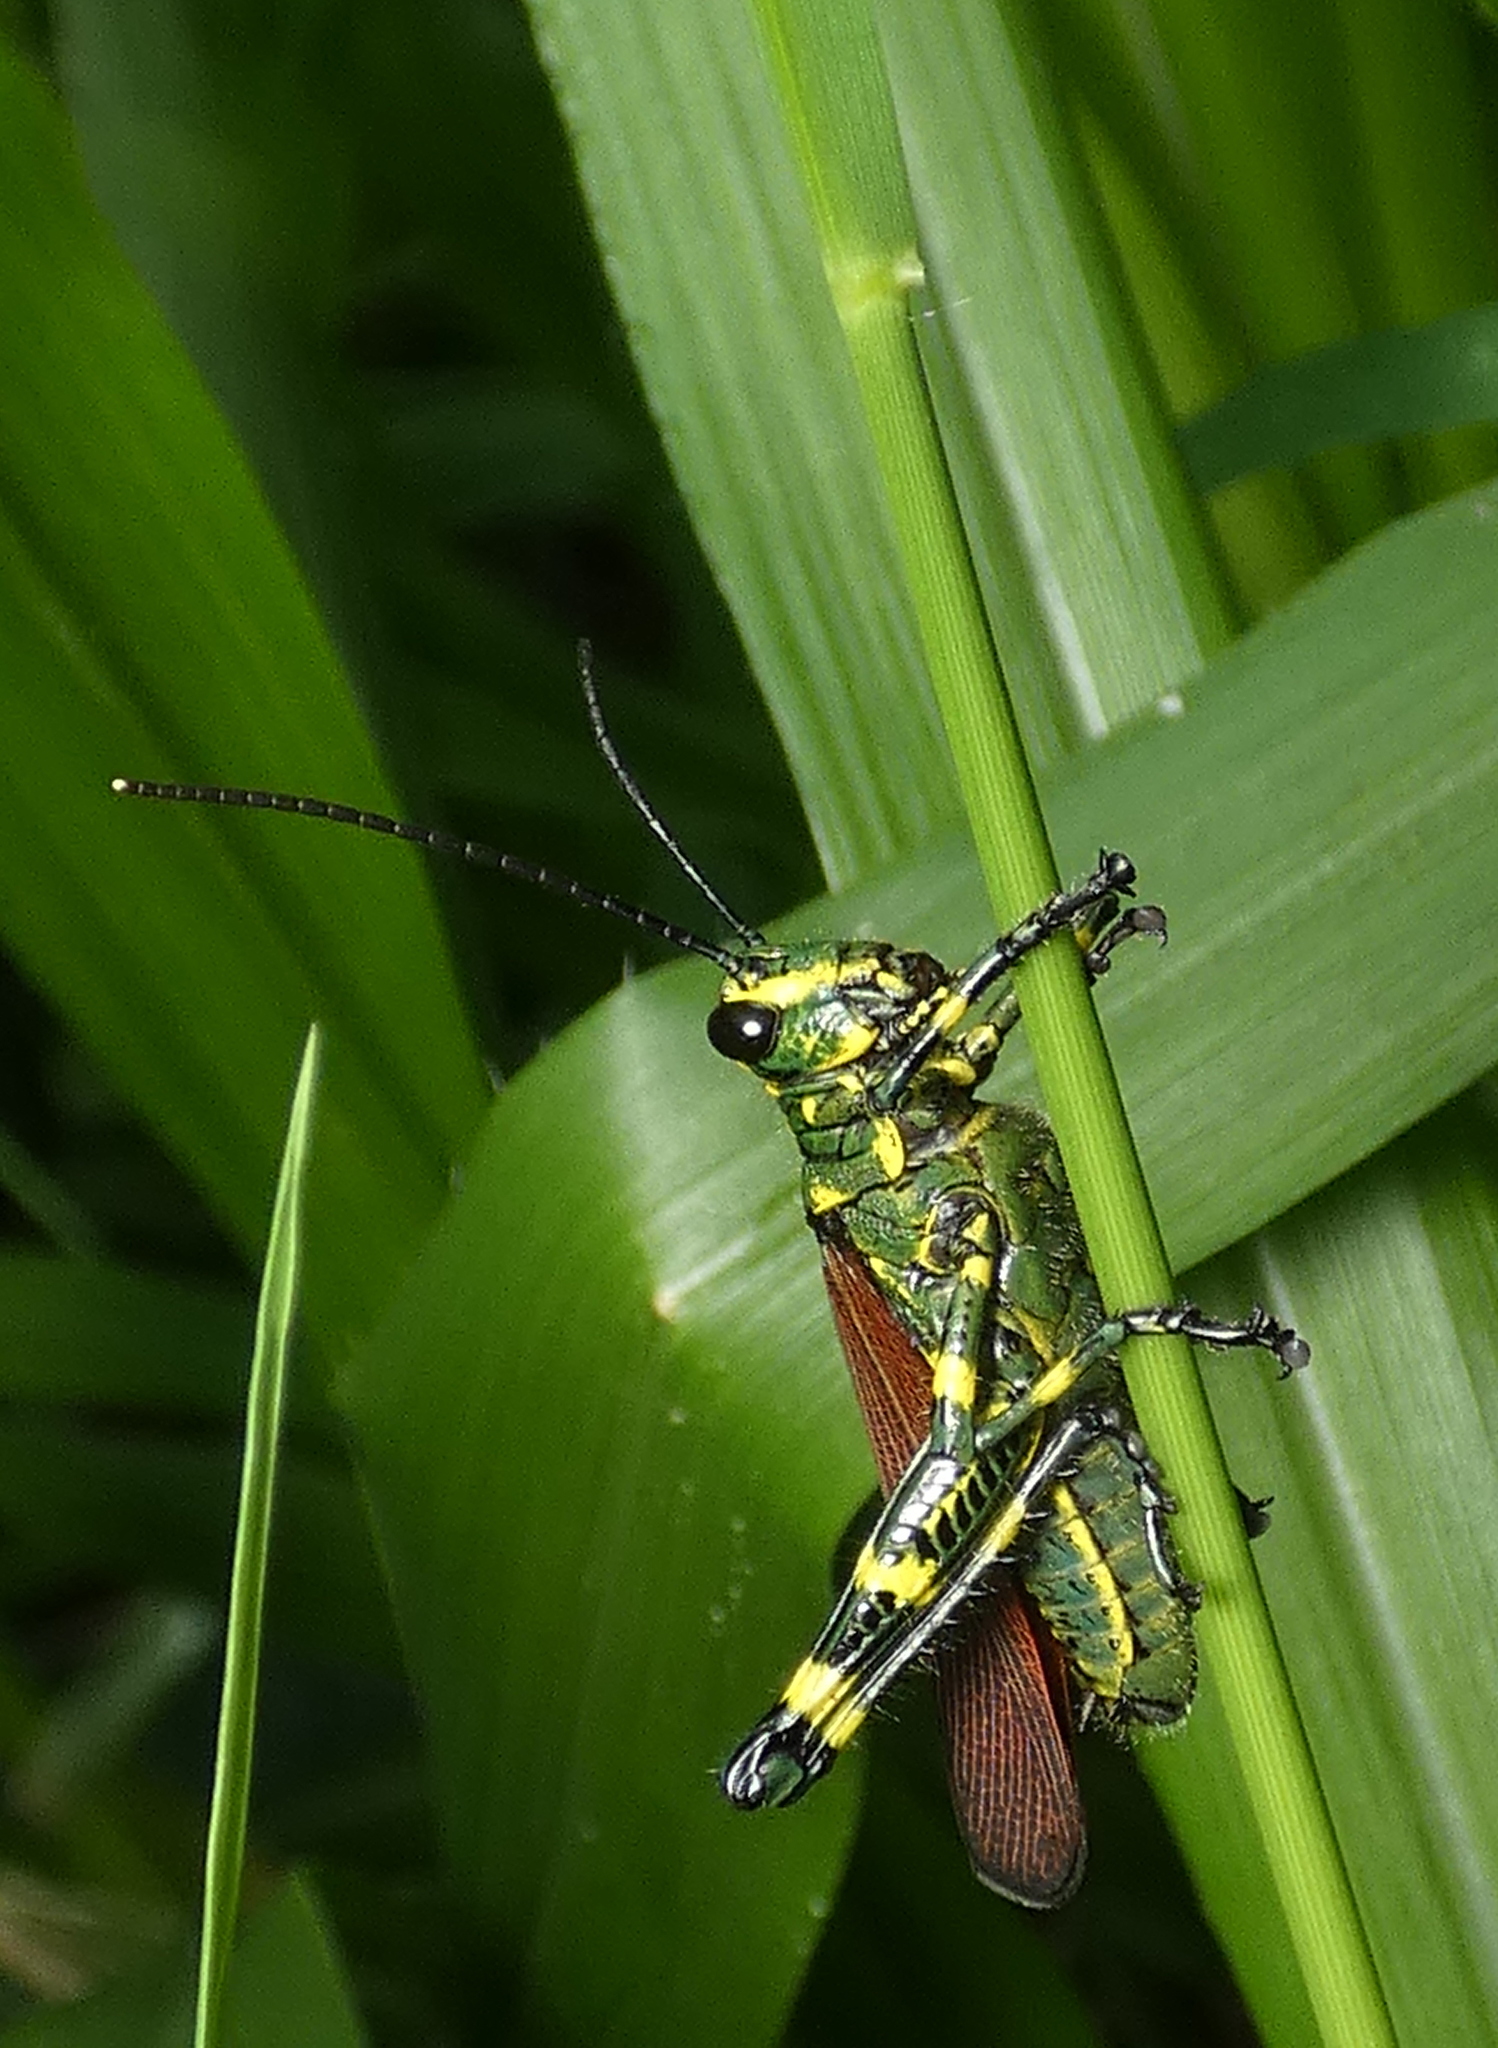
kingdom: Animalia
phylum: Arthropoda
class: Insecta
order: Orthoptera
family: Romaleidae
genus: Chromacris
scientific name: Chromacris speciosa
